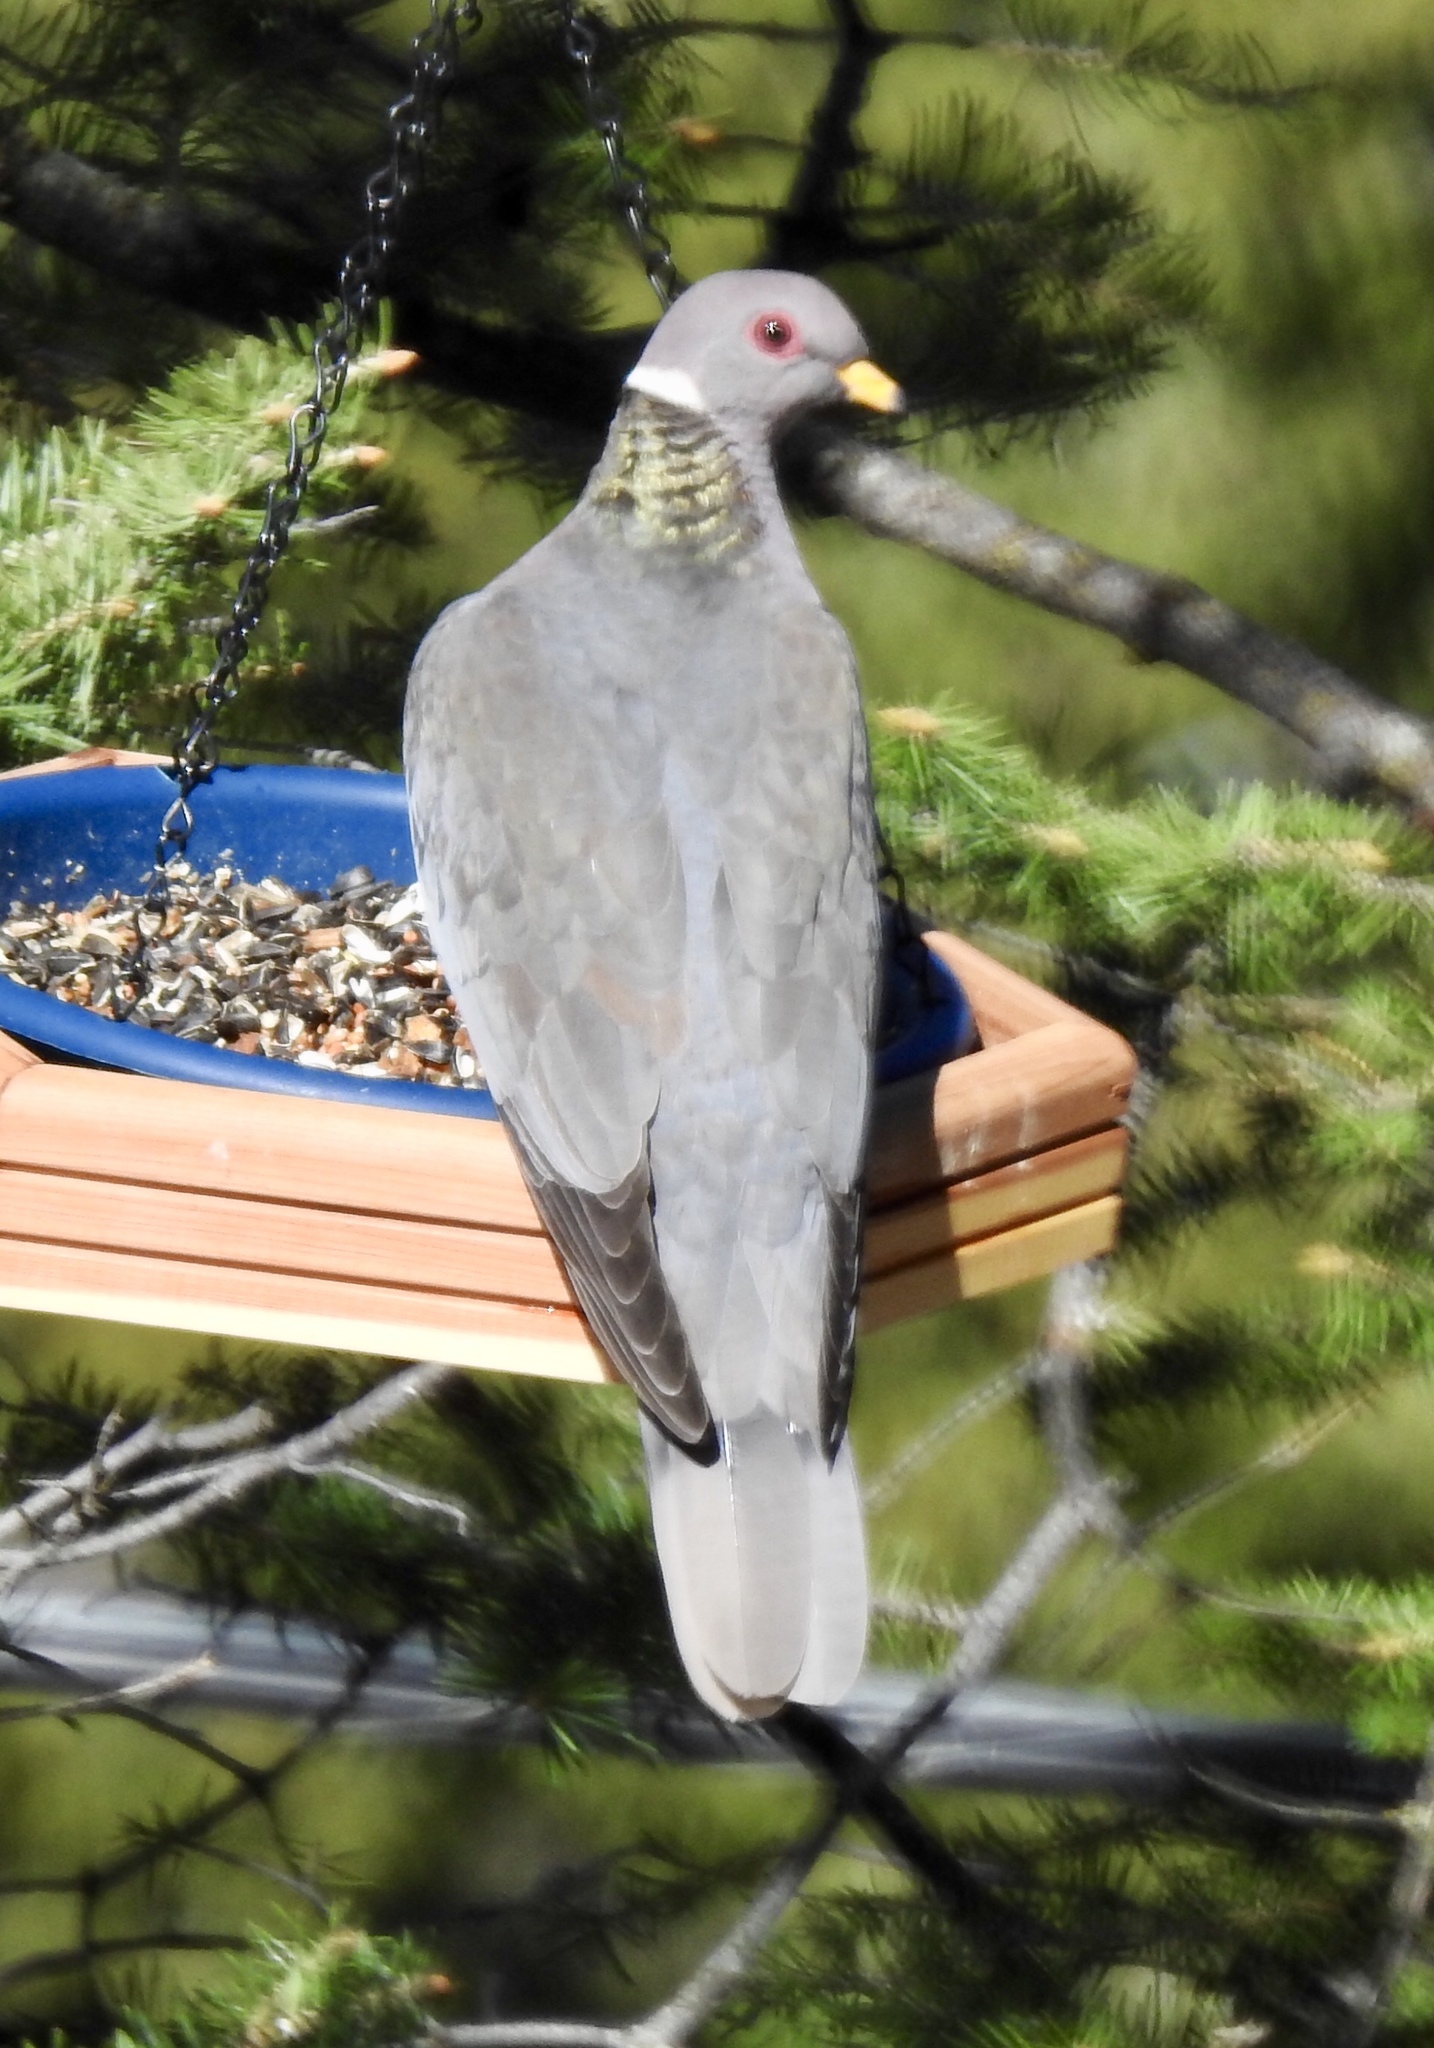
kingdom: Animalia
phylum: Chordata
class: Aves
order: Columbiformes
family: Columbidae
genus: Patagioenas
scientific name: Patagioenas fasciata
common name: Band-tailed pigeon
